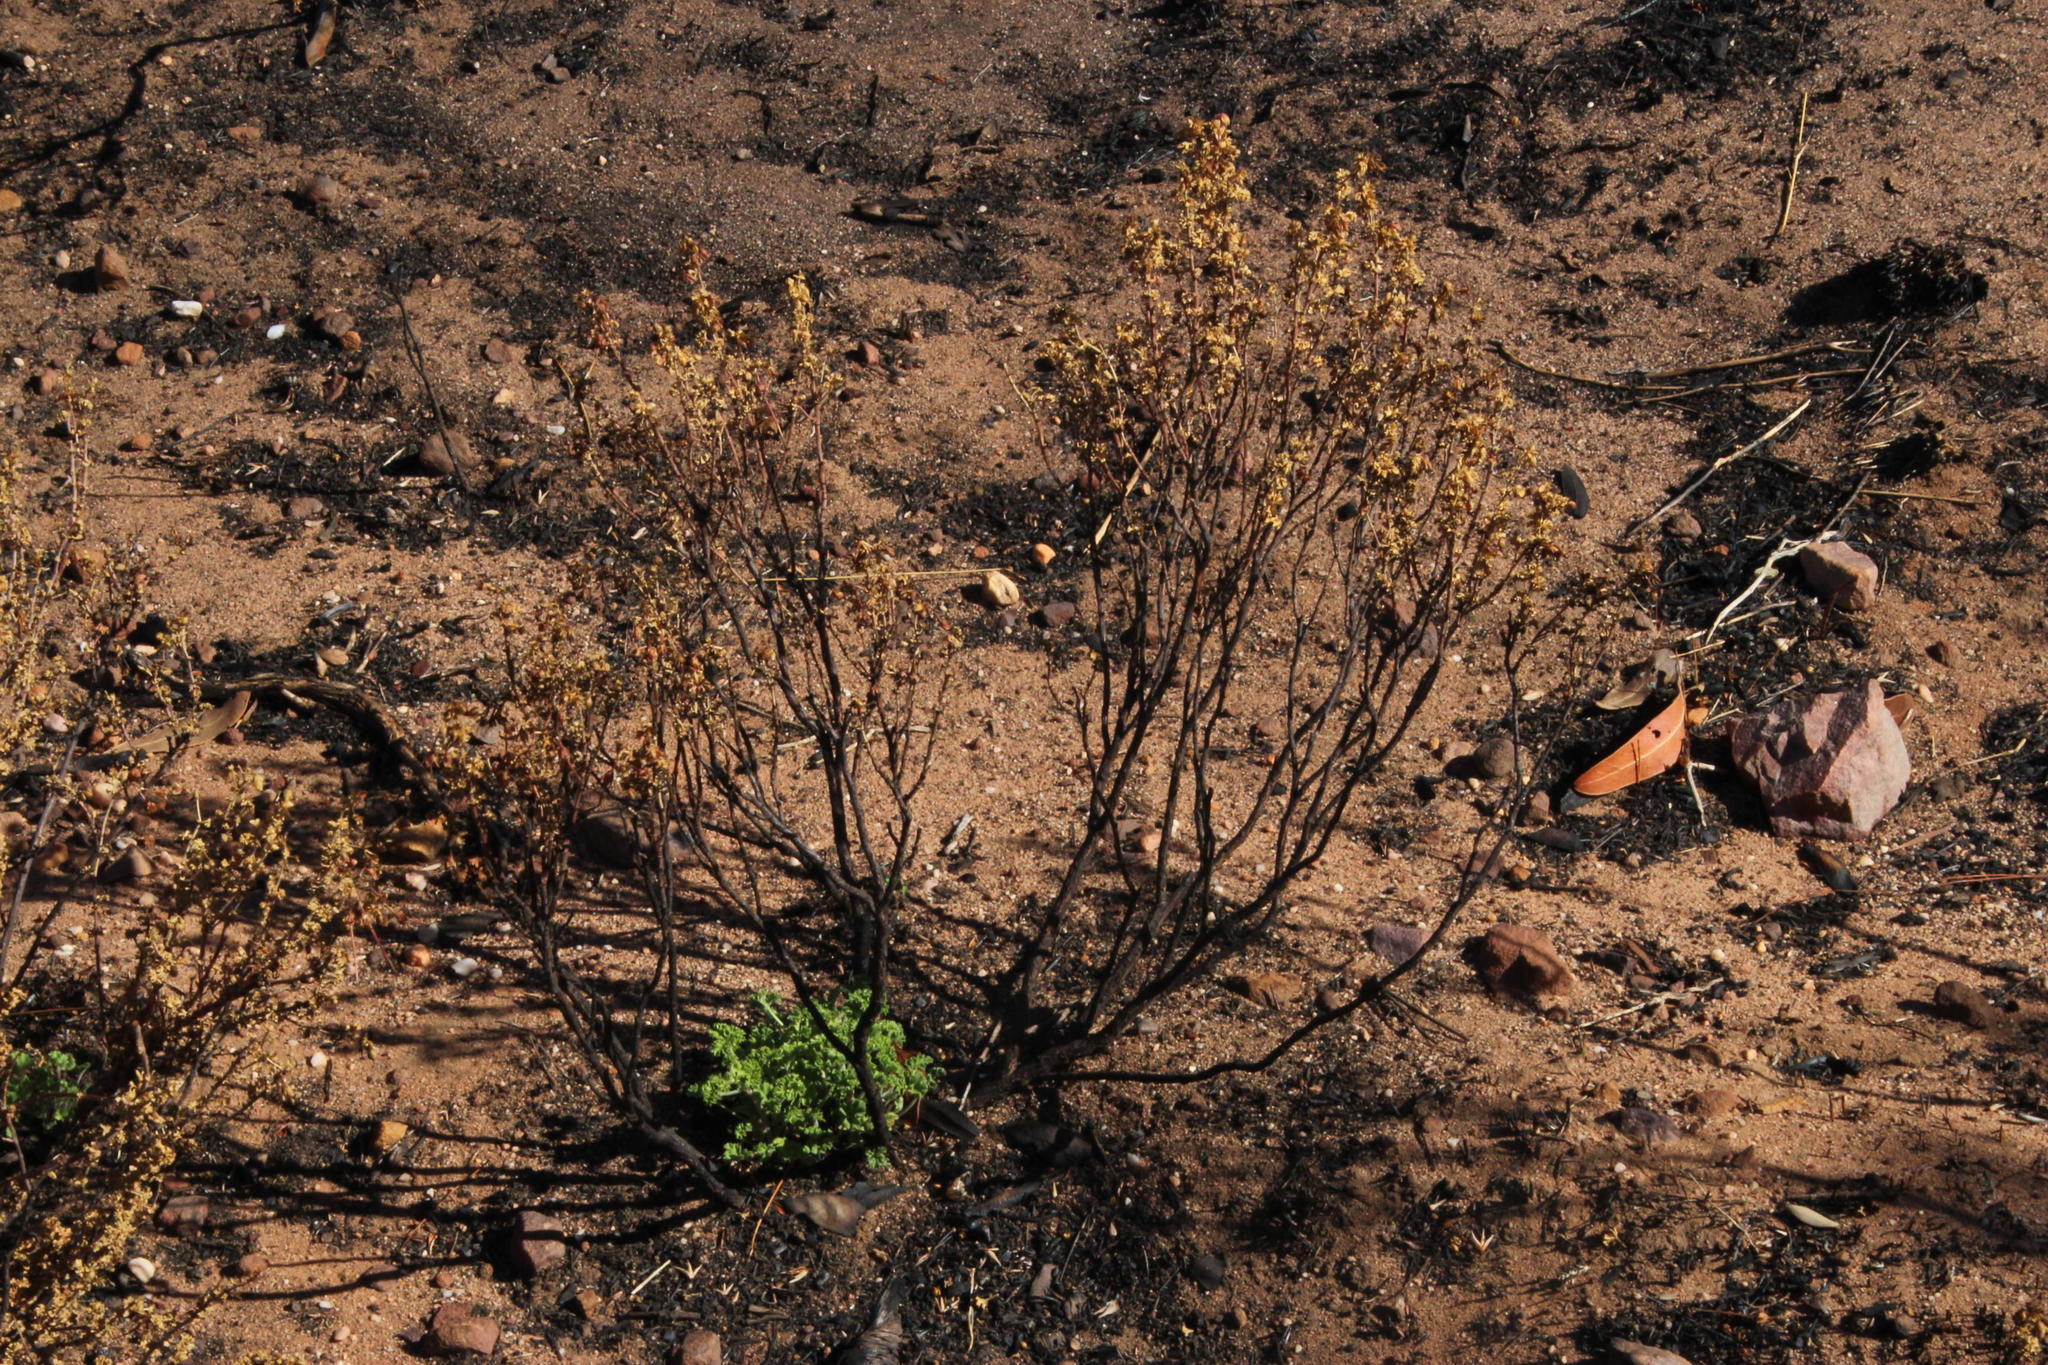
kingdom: Plantae
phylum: Tracheophyta
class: Magnoliopsida
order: Geraniales
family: Geraniaceae
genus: Pelargonium
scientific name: Pelargonium englerianum
